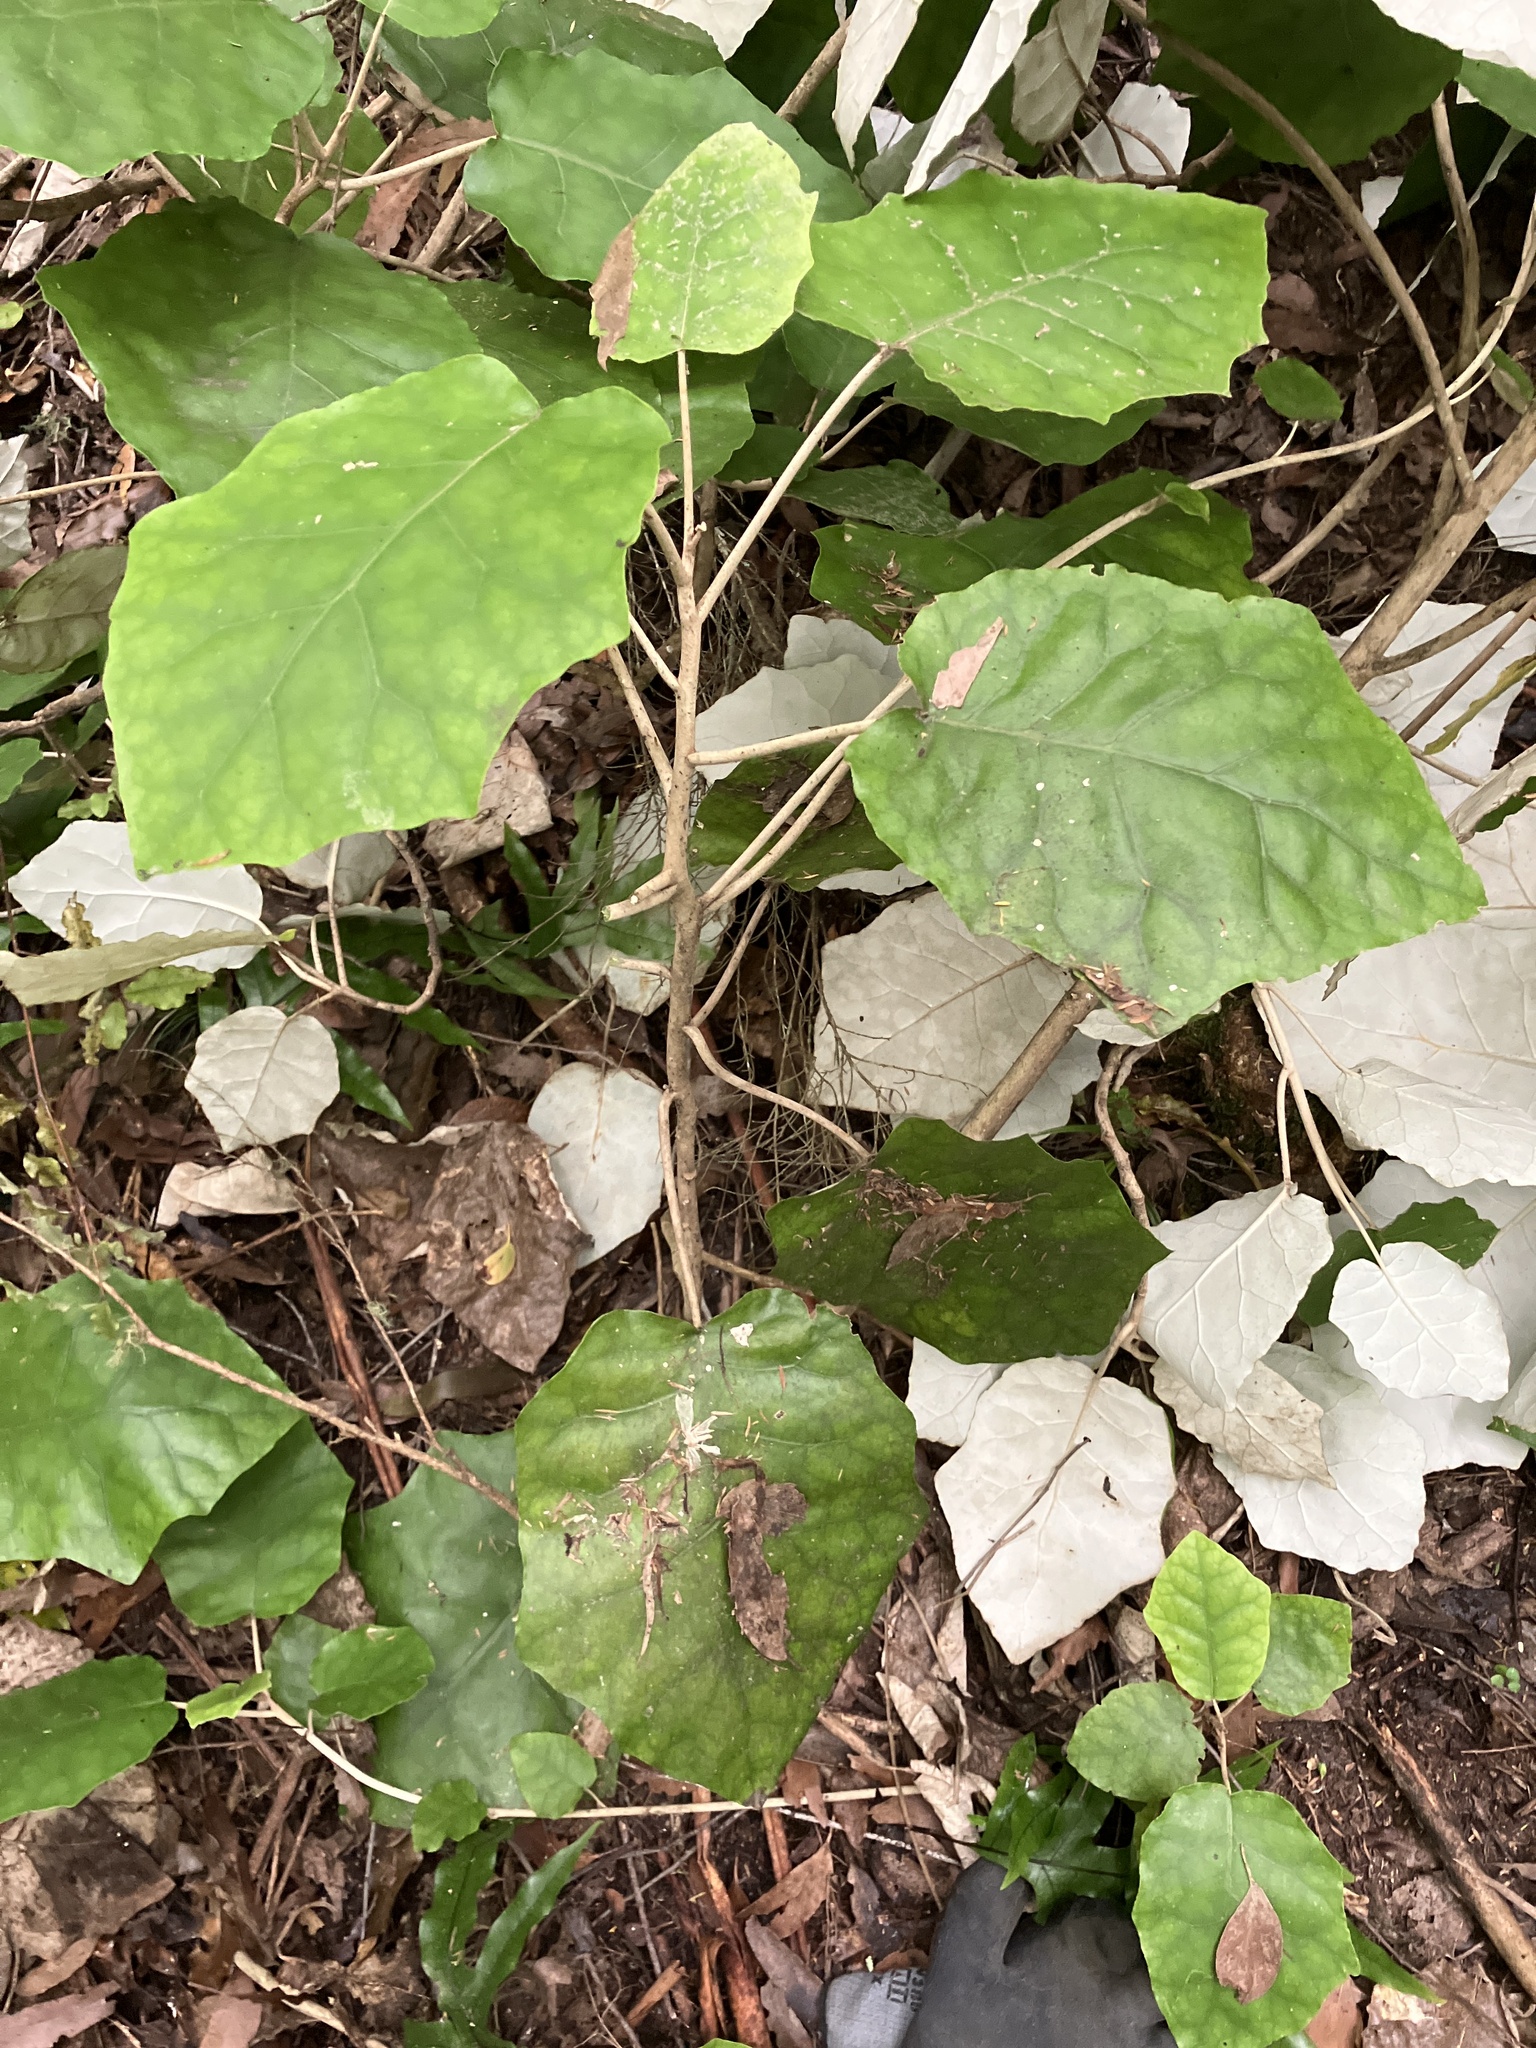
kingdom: Plantae
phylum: Tracheophyta
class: Magnoliopsida
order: Asterales
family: Asteraceae
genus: Brachyglottis
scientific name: Brachyglottis repanda
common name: Hedge ragwort
